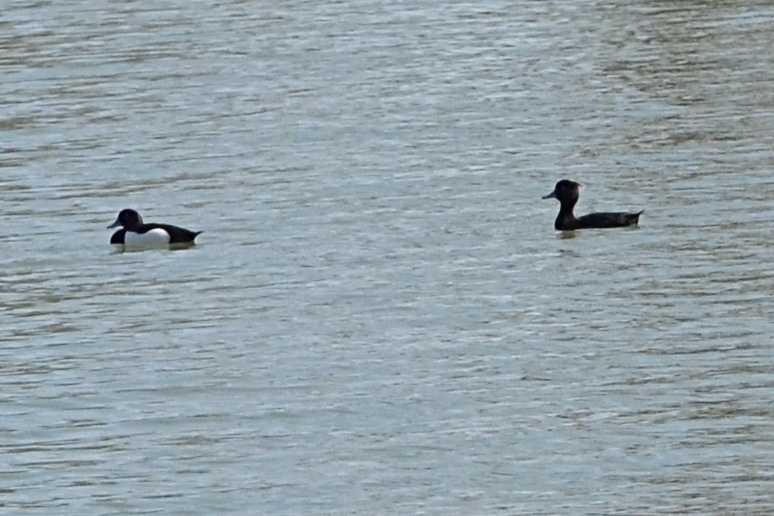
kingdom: Animalia
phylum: Chordata
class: Aves
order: Anseriformes
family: Anatidae
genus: Aythya
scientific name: Aythya fuligula
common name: Tufted duck
